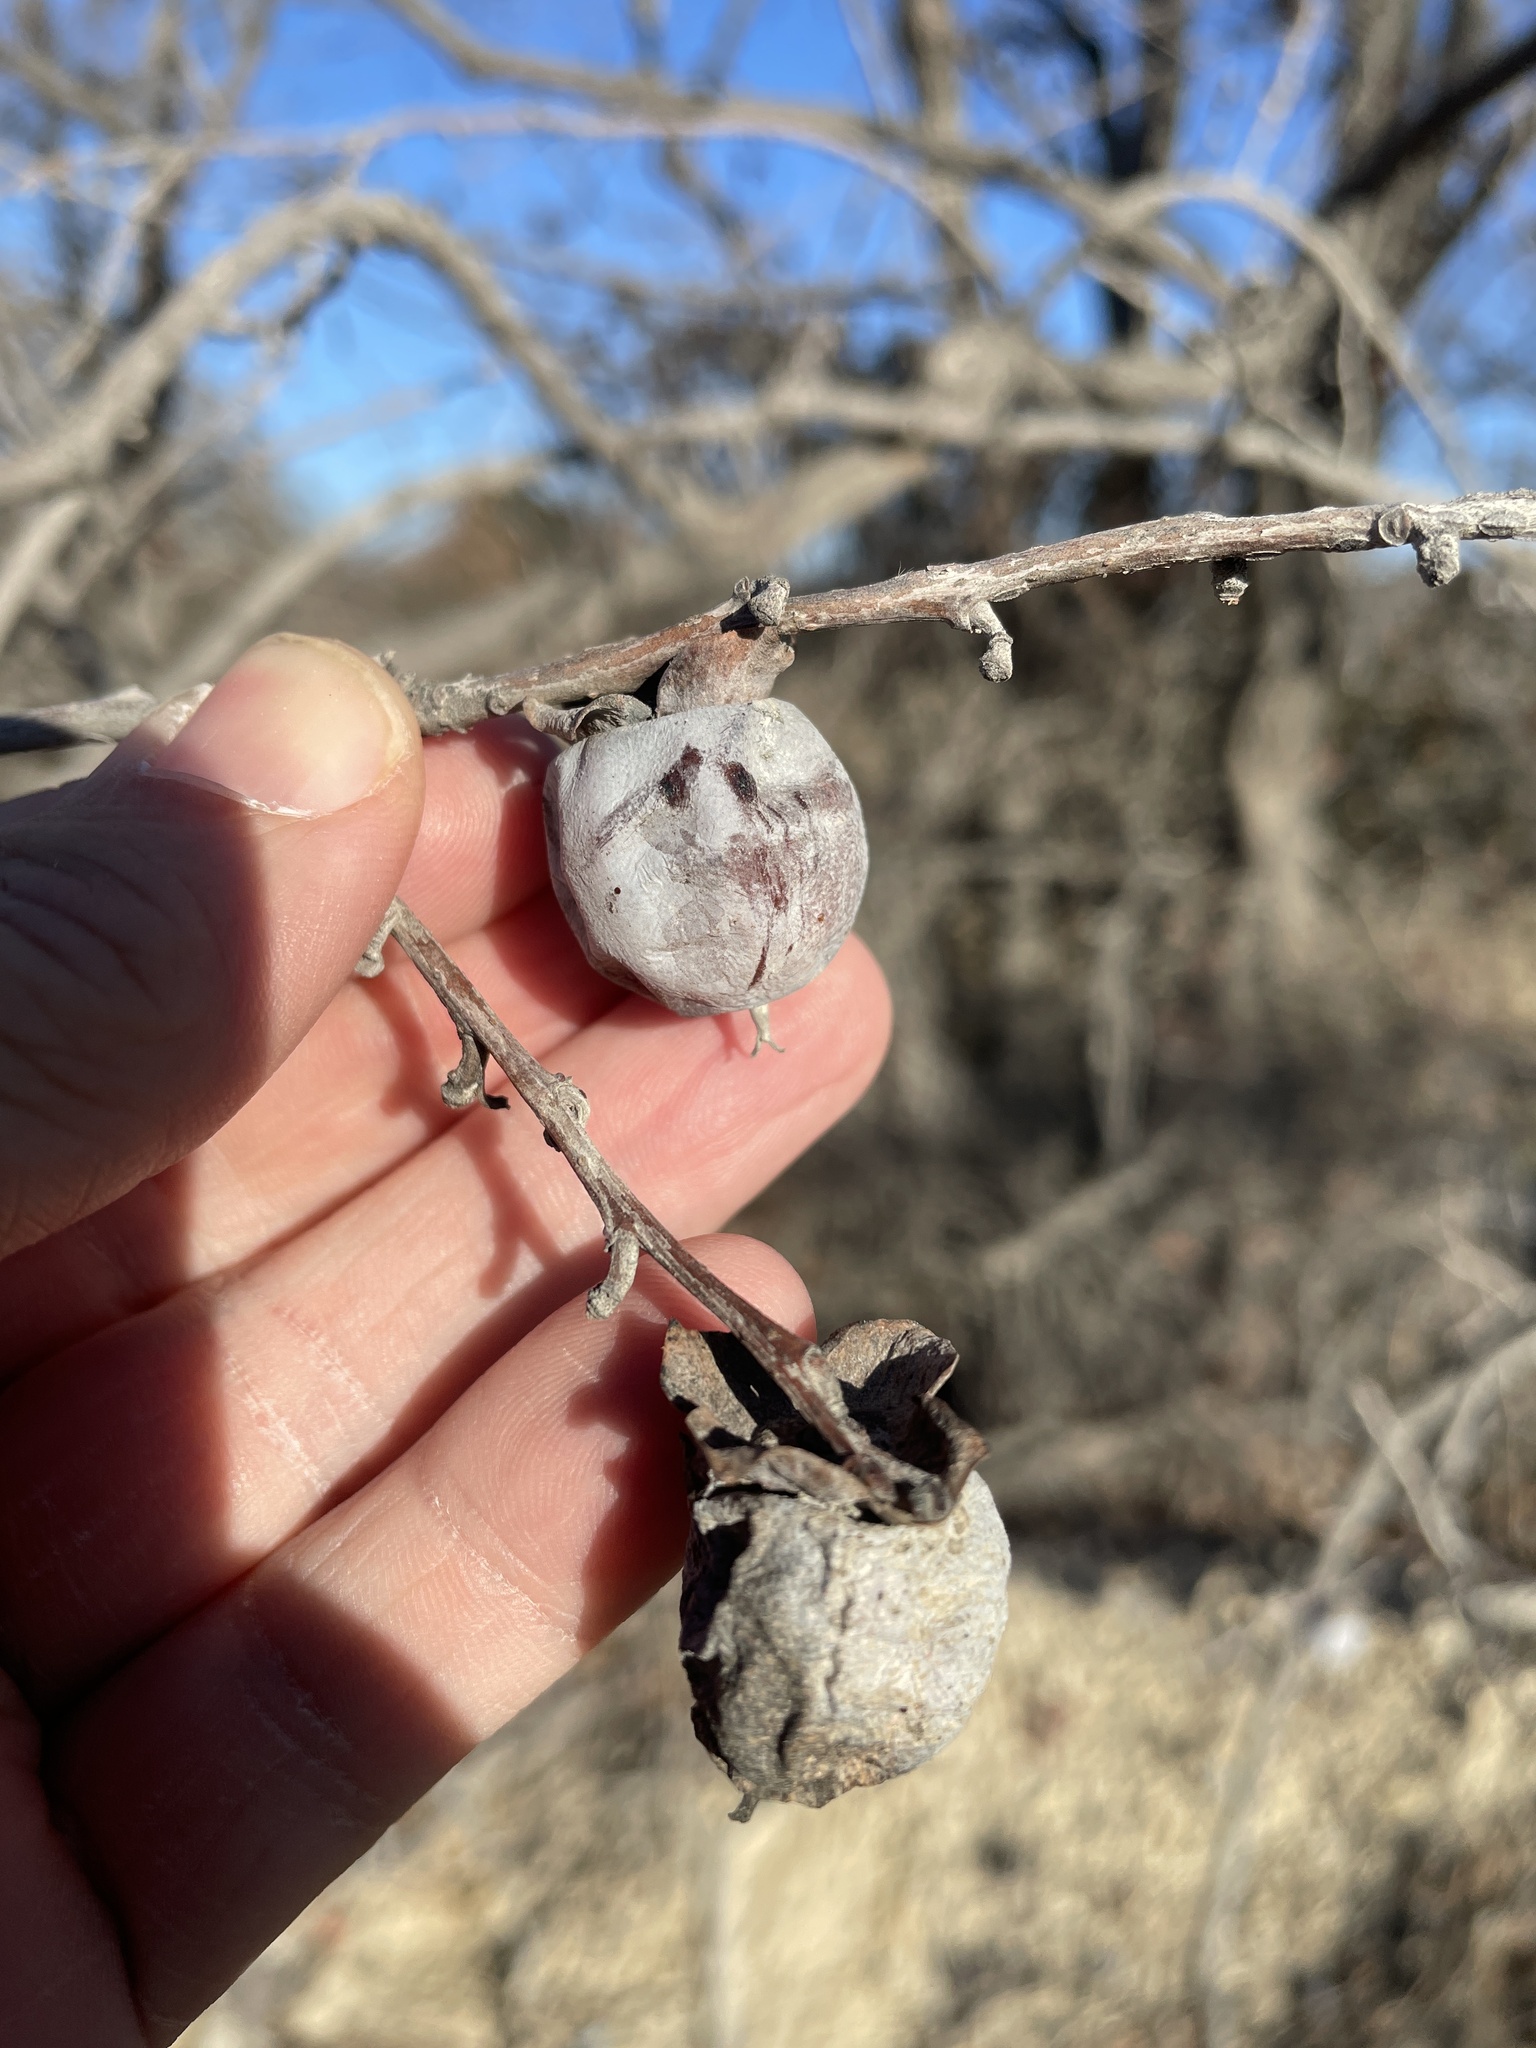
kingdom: Plantae
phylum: Tracheophyta
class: Magnoliopsida
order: Ericales
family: Ebenaceae
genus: Diospyros
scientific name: Diospyros virginiana
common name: Persimmon
